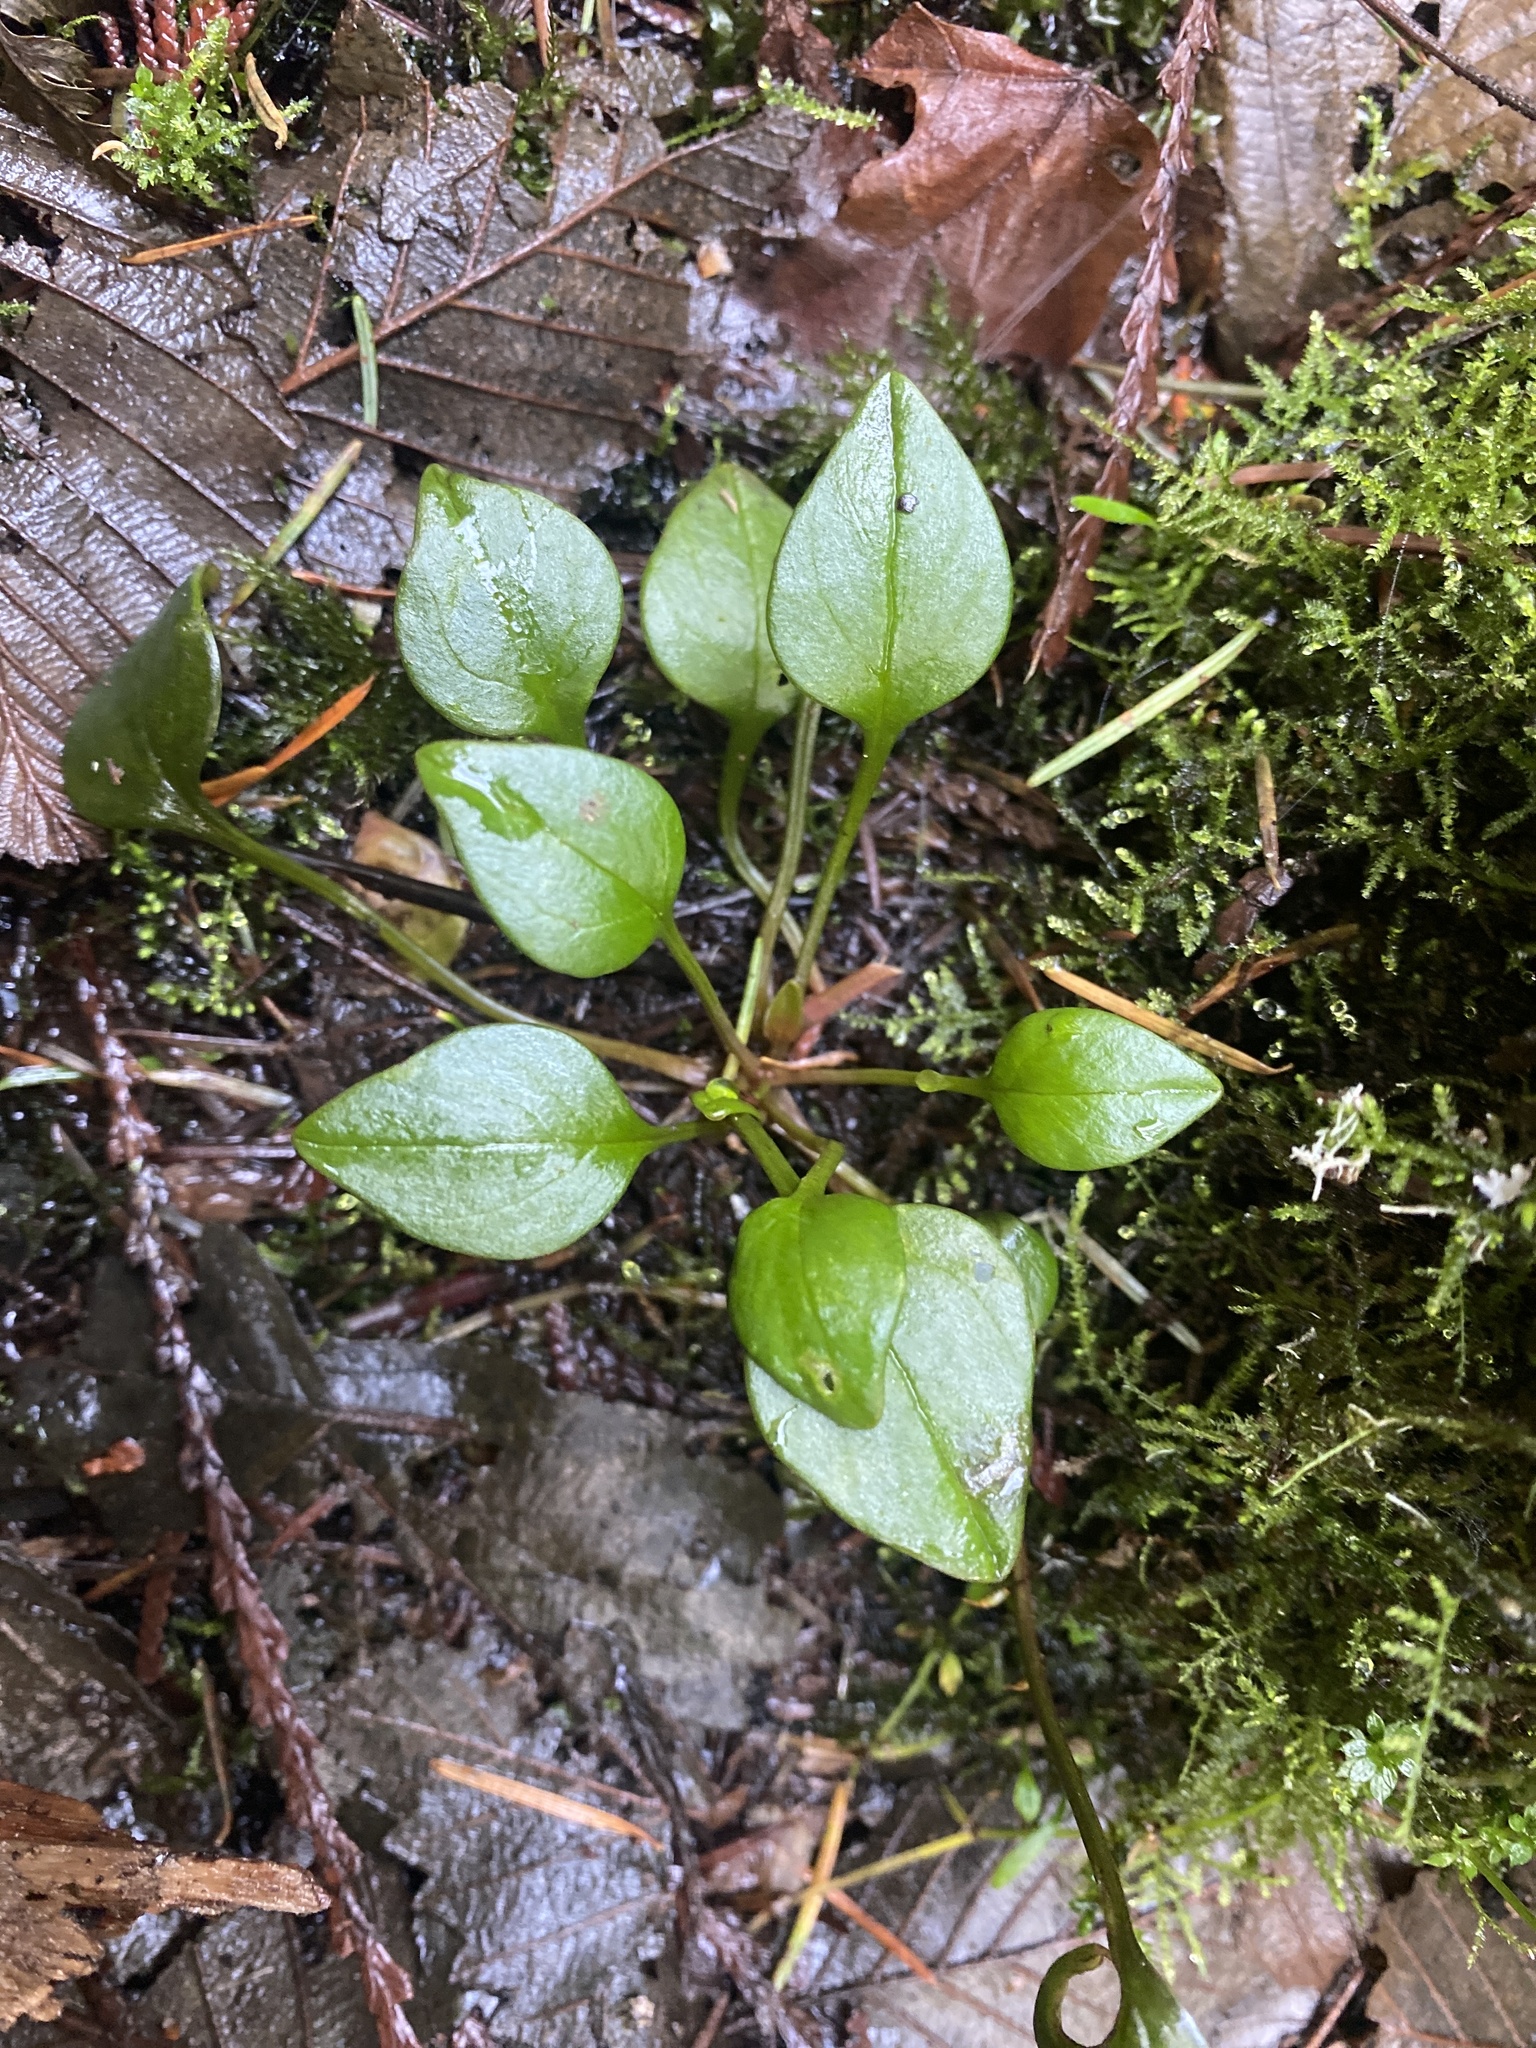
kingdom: Plantae
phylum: Tracheophyta
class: Magnoliopsida
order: Caryophyllales
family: Montiaceae
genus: Claytonia
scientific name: Claytonia sibirica
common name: Pink purslane
